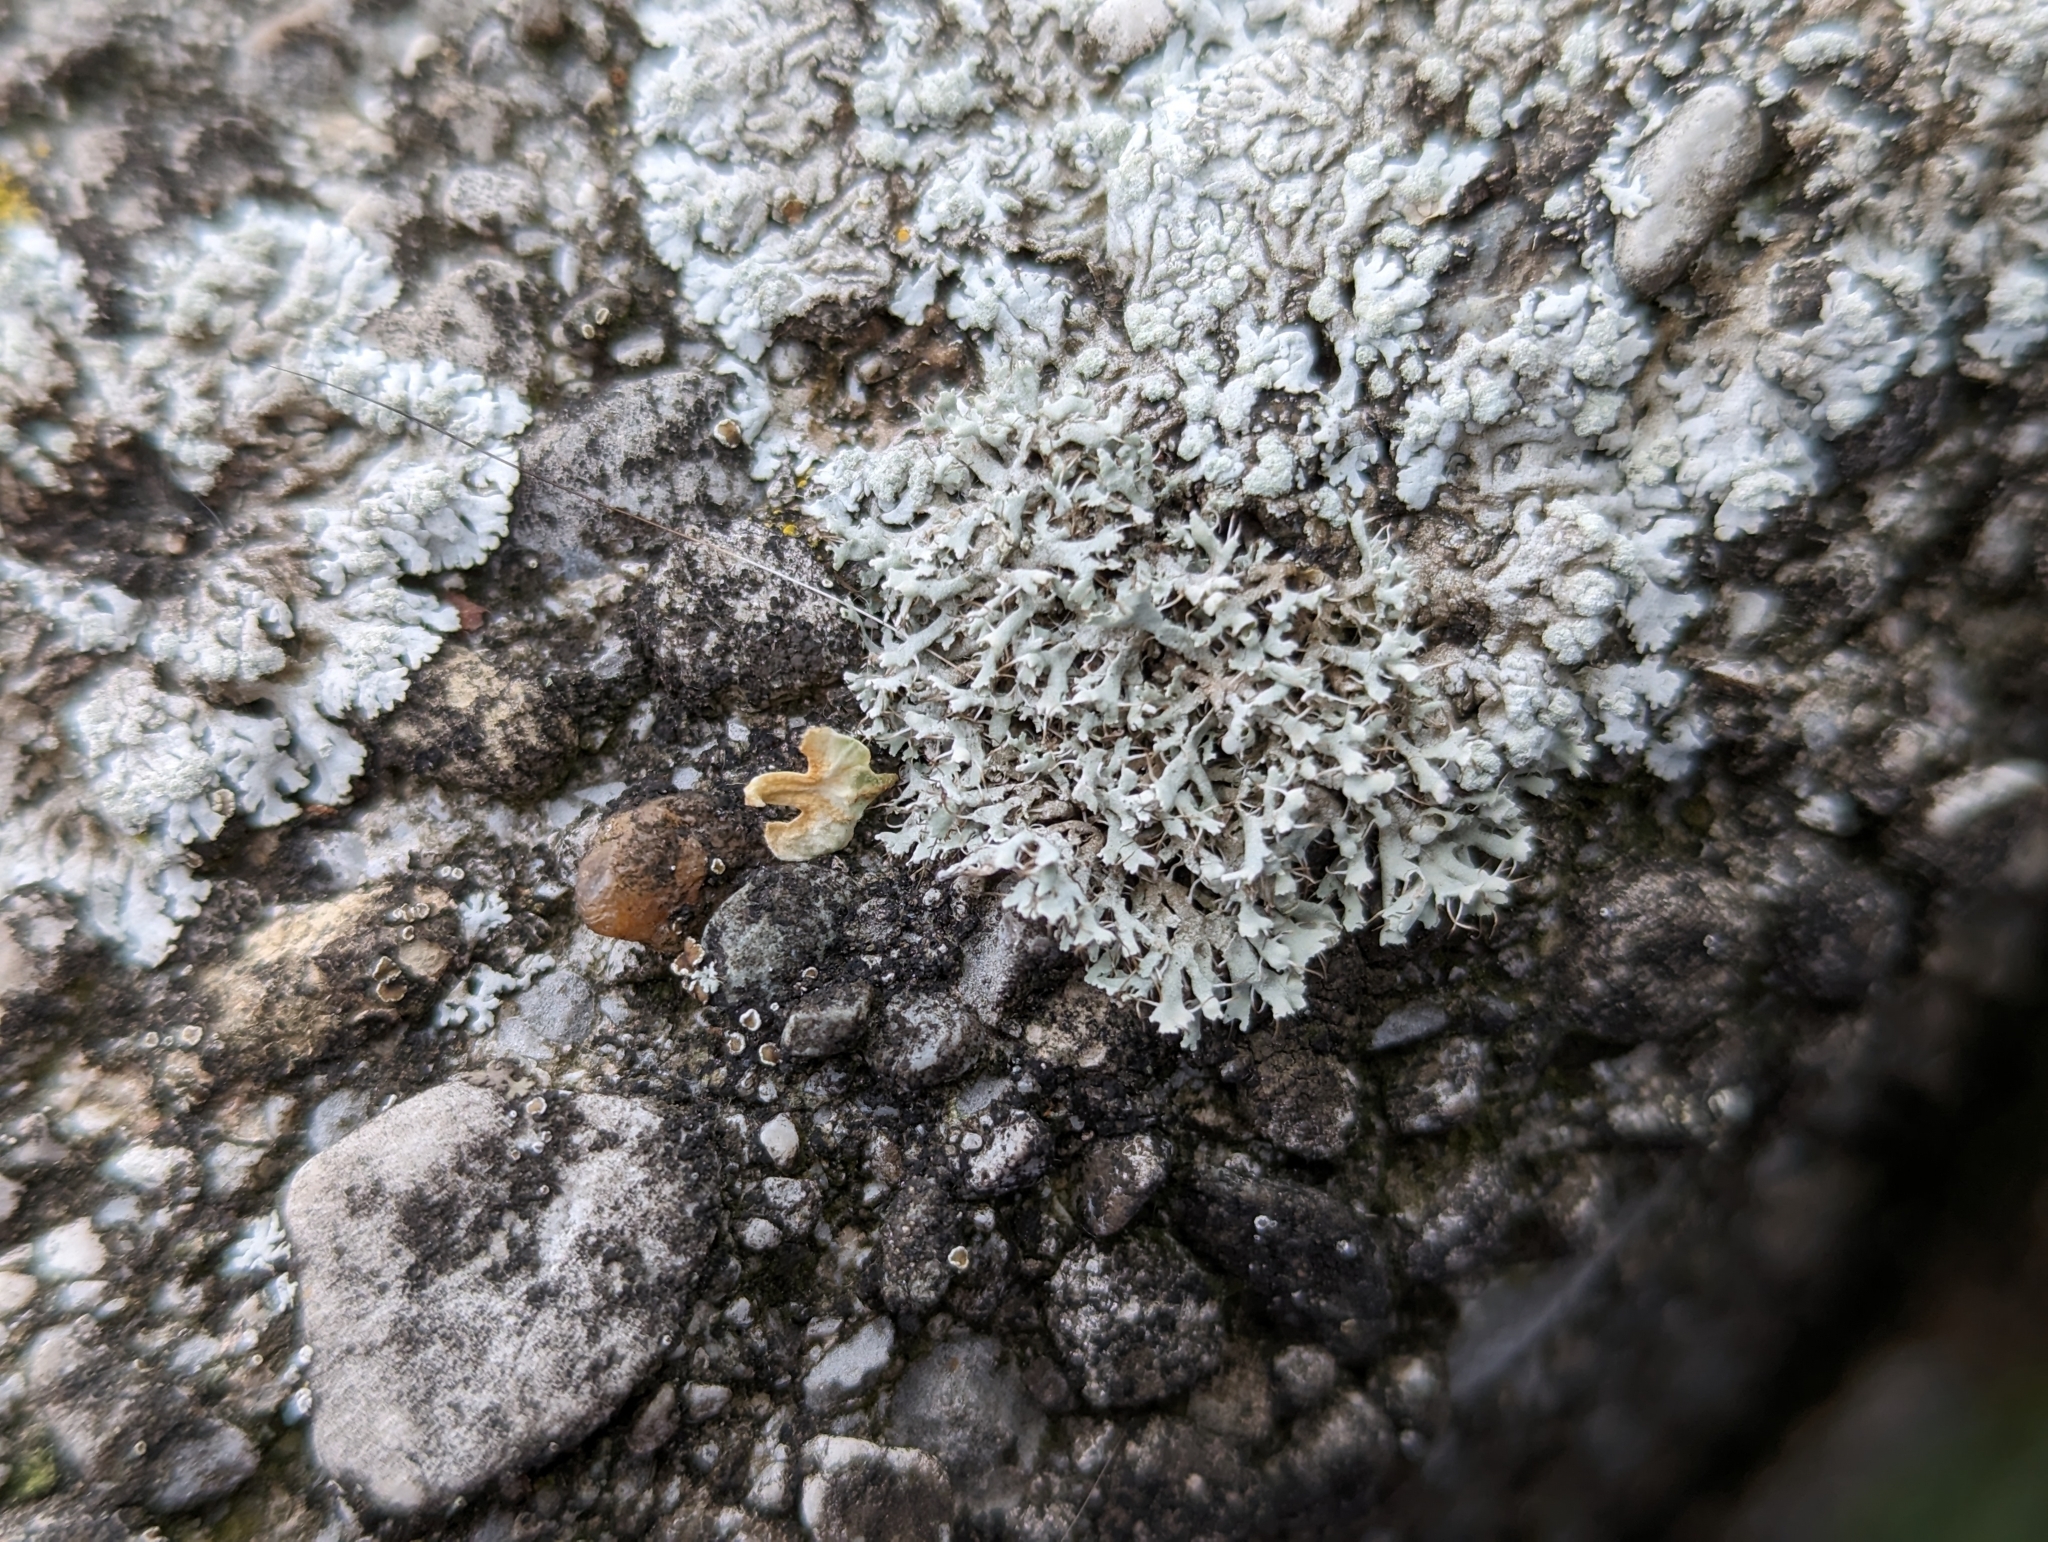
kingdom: Fungi
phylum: Ascomycota
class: Lecanoromycetes
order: Caliciales
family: Physciaceae
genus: Physcia
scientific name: Physcia adscendens
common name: Hooded rosette lichen
